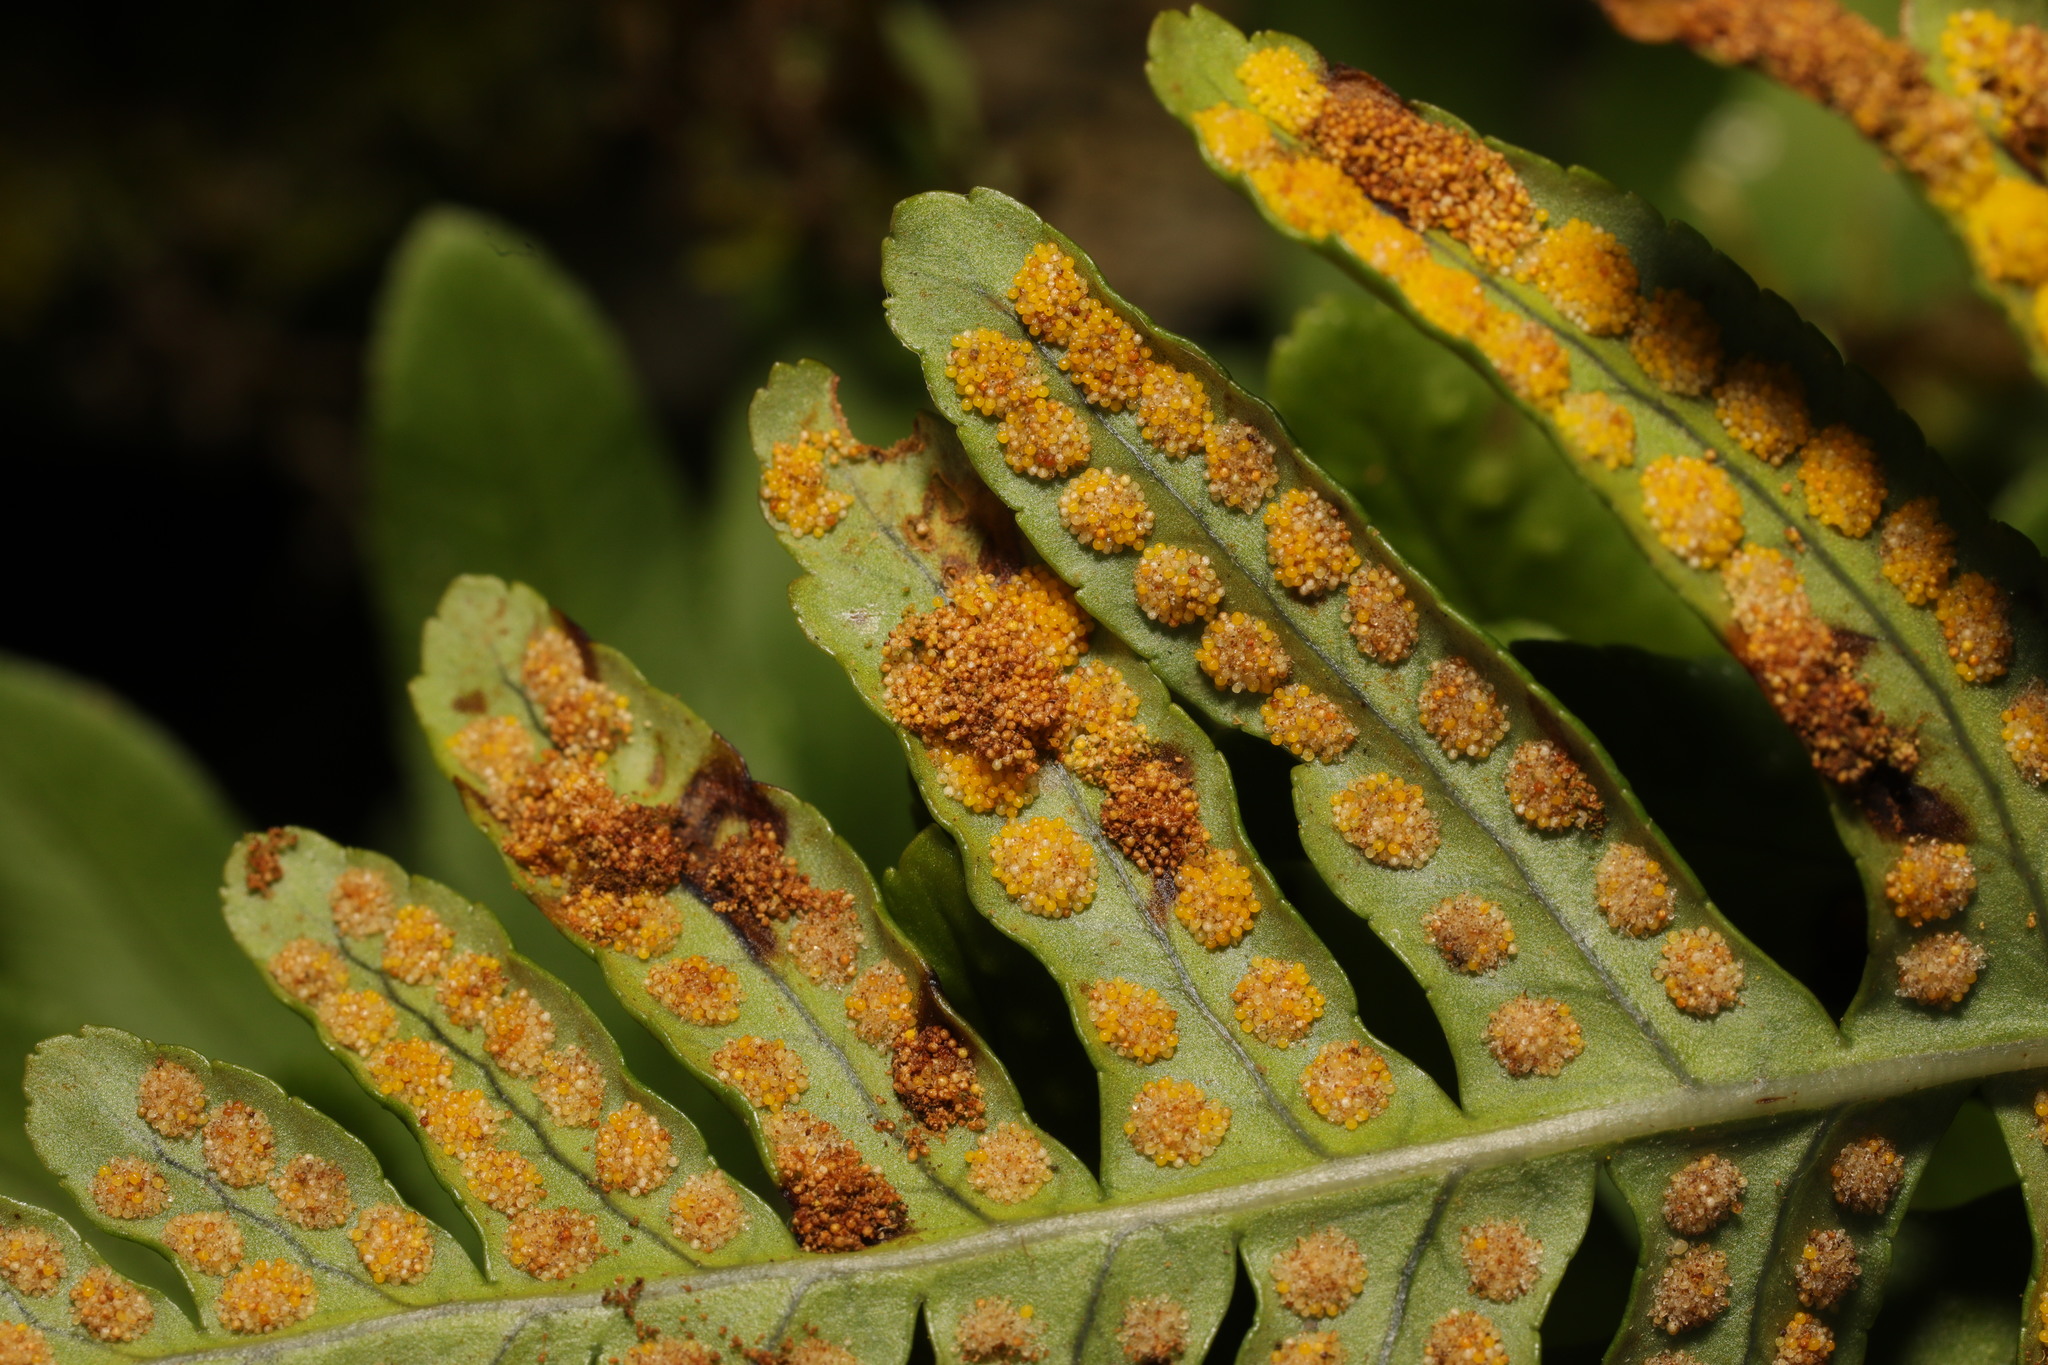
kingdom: Animalia
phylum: Arthropoda
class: Insecta
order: Lepidoptera
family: Tineidae
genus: Psychoides
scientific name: Psychoides filicivora
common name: Fern smut
